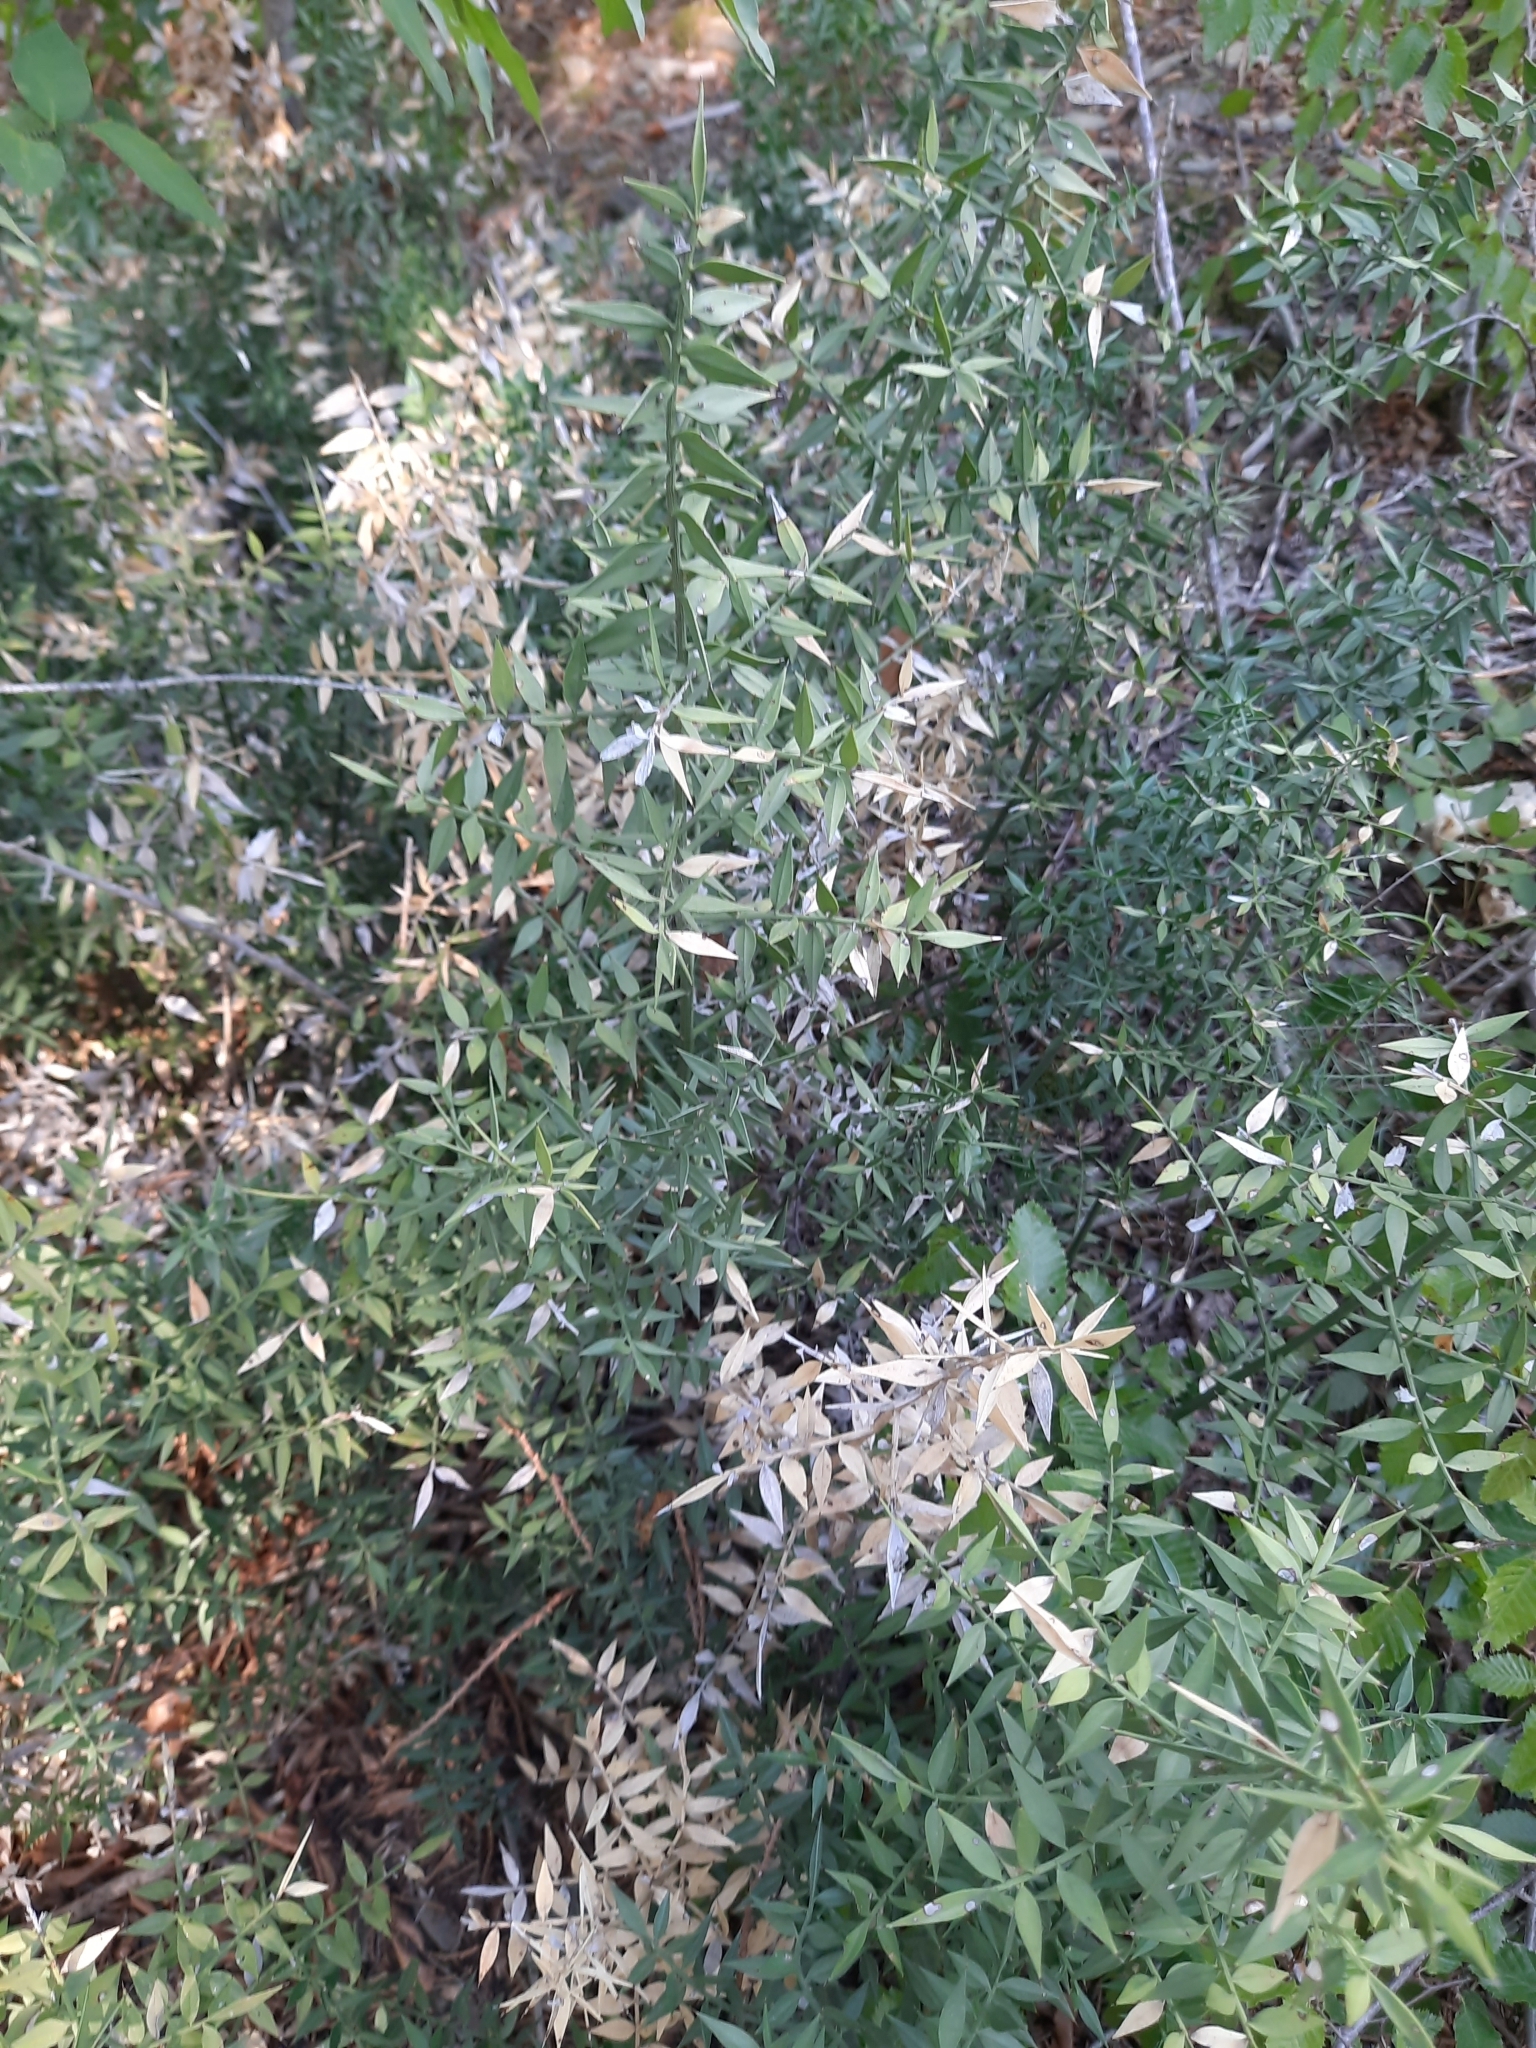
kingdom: Plantae
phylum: Tracheophyta
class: Liliopsida
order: Asparagales
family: Asparagaceae
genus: Ruscus
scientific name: Ruscus aculeatus
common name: Butcher's-broom
